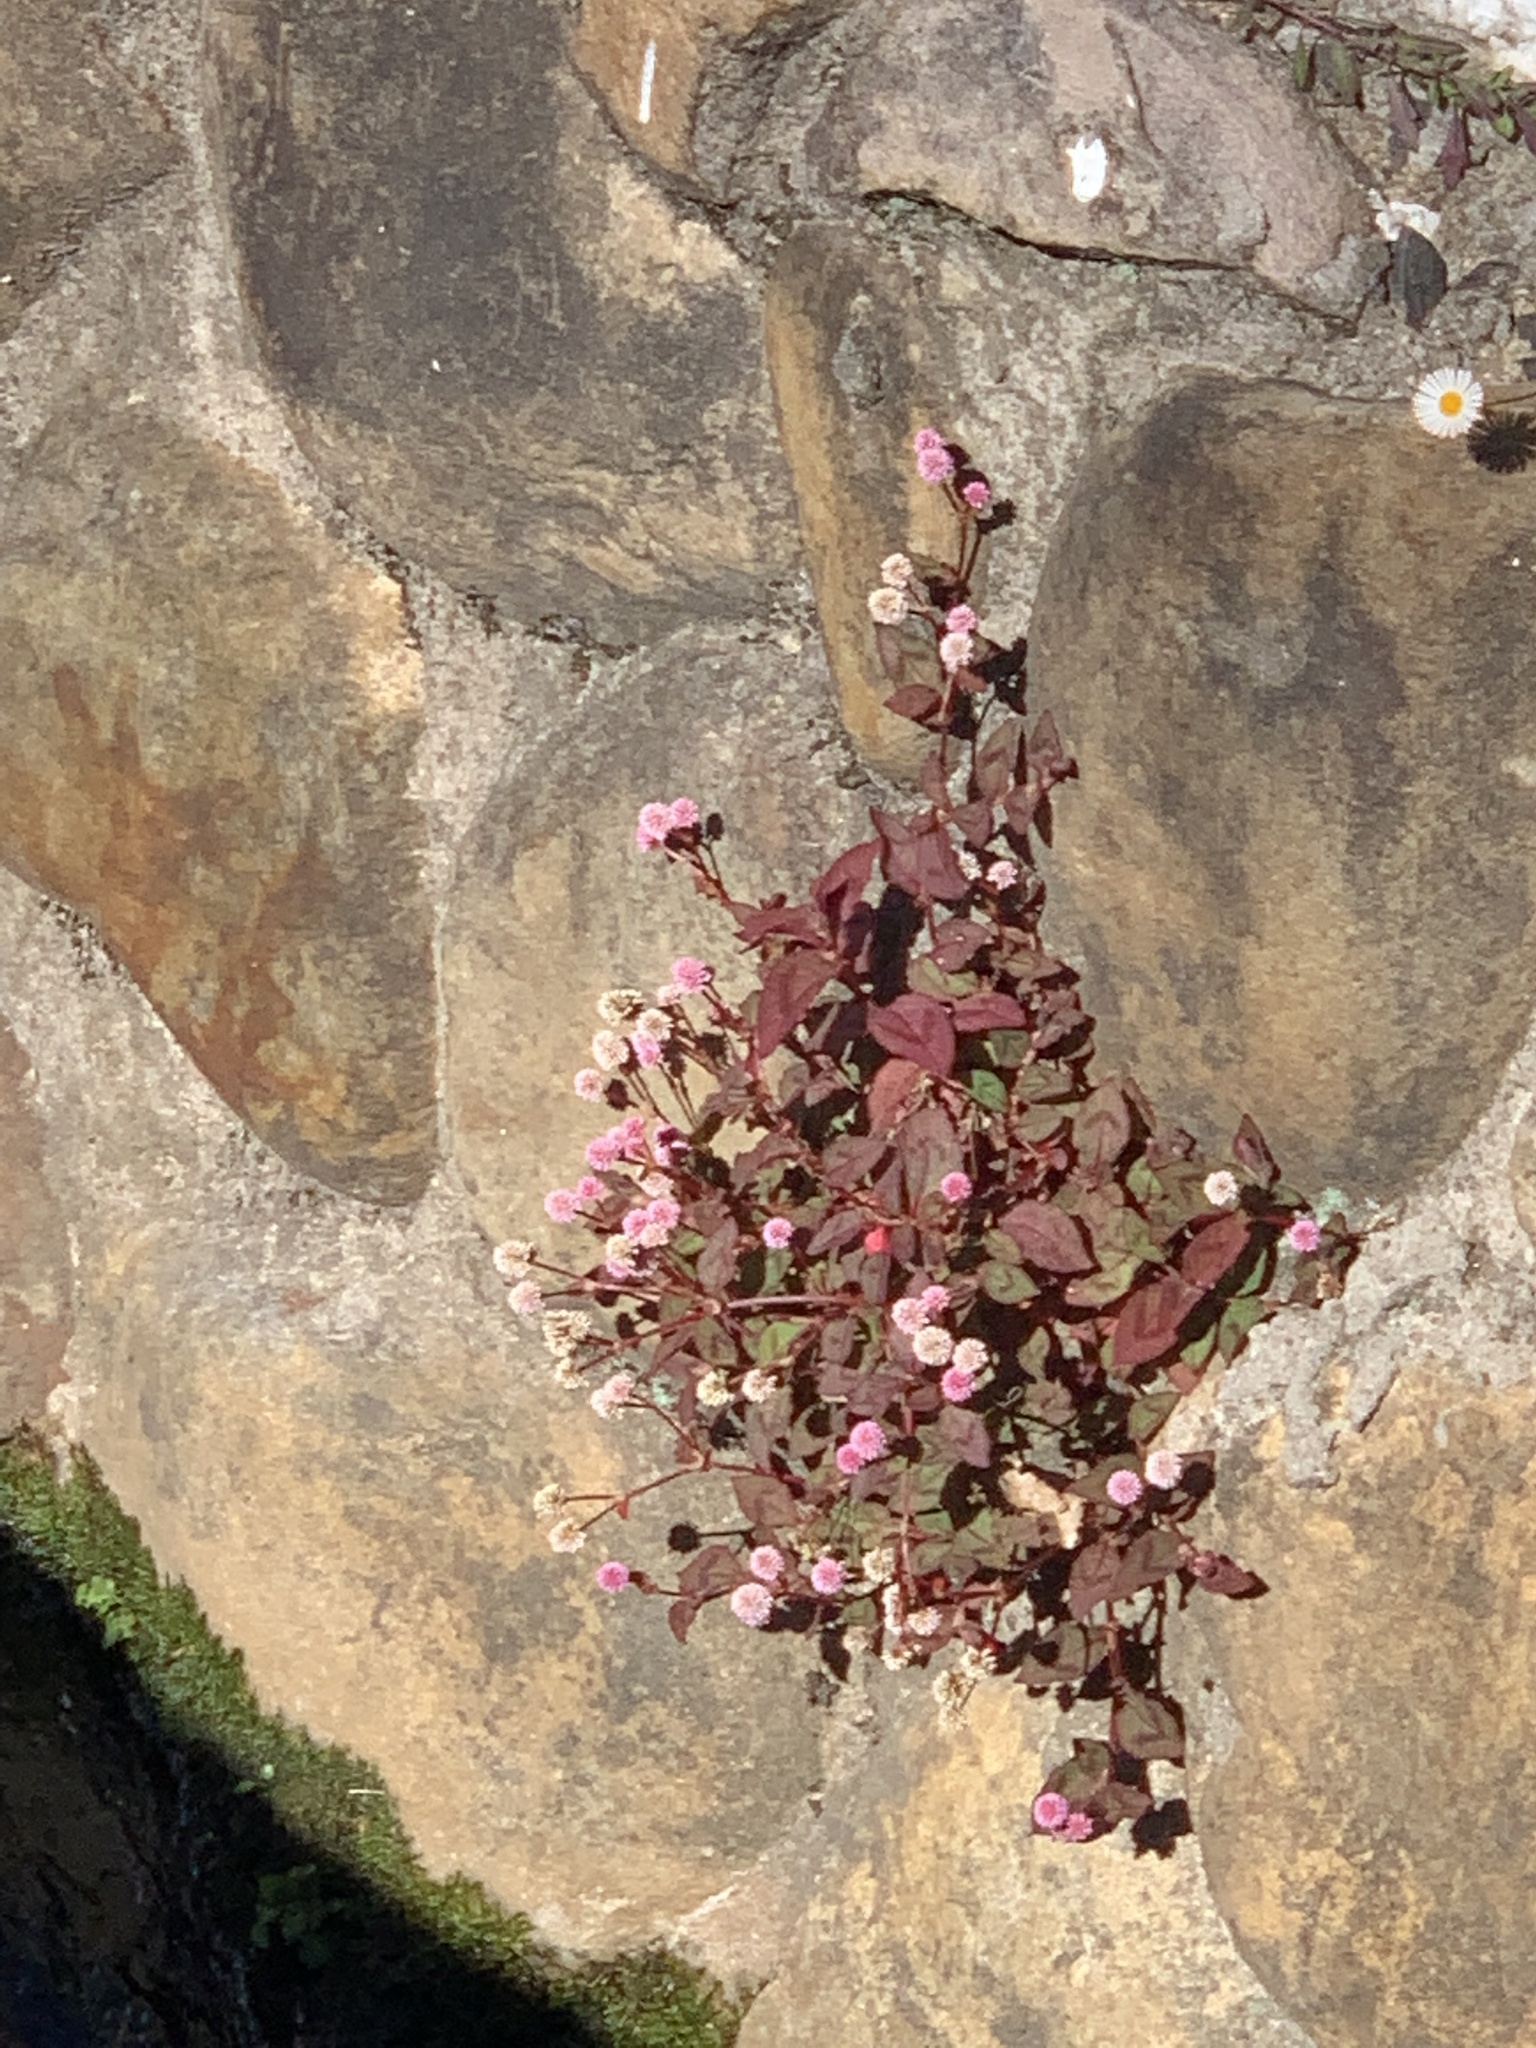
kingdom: Plantae
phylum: Tracheophyta
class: Magnoliopsida
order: Caryophyllales
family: Polygonaceae
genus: Persicaria
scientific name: Persicaria capitata
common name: Pinkhead smartweed
